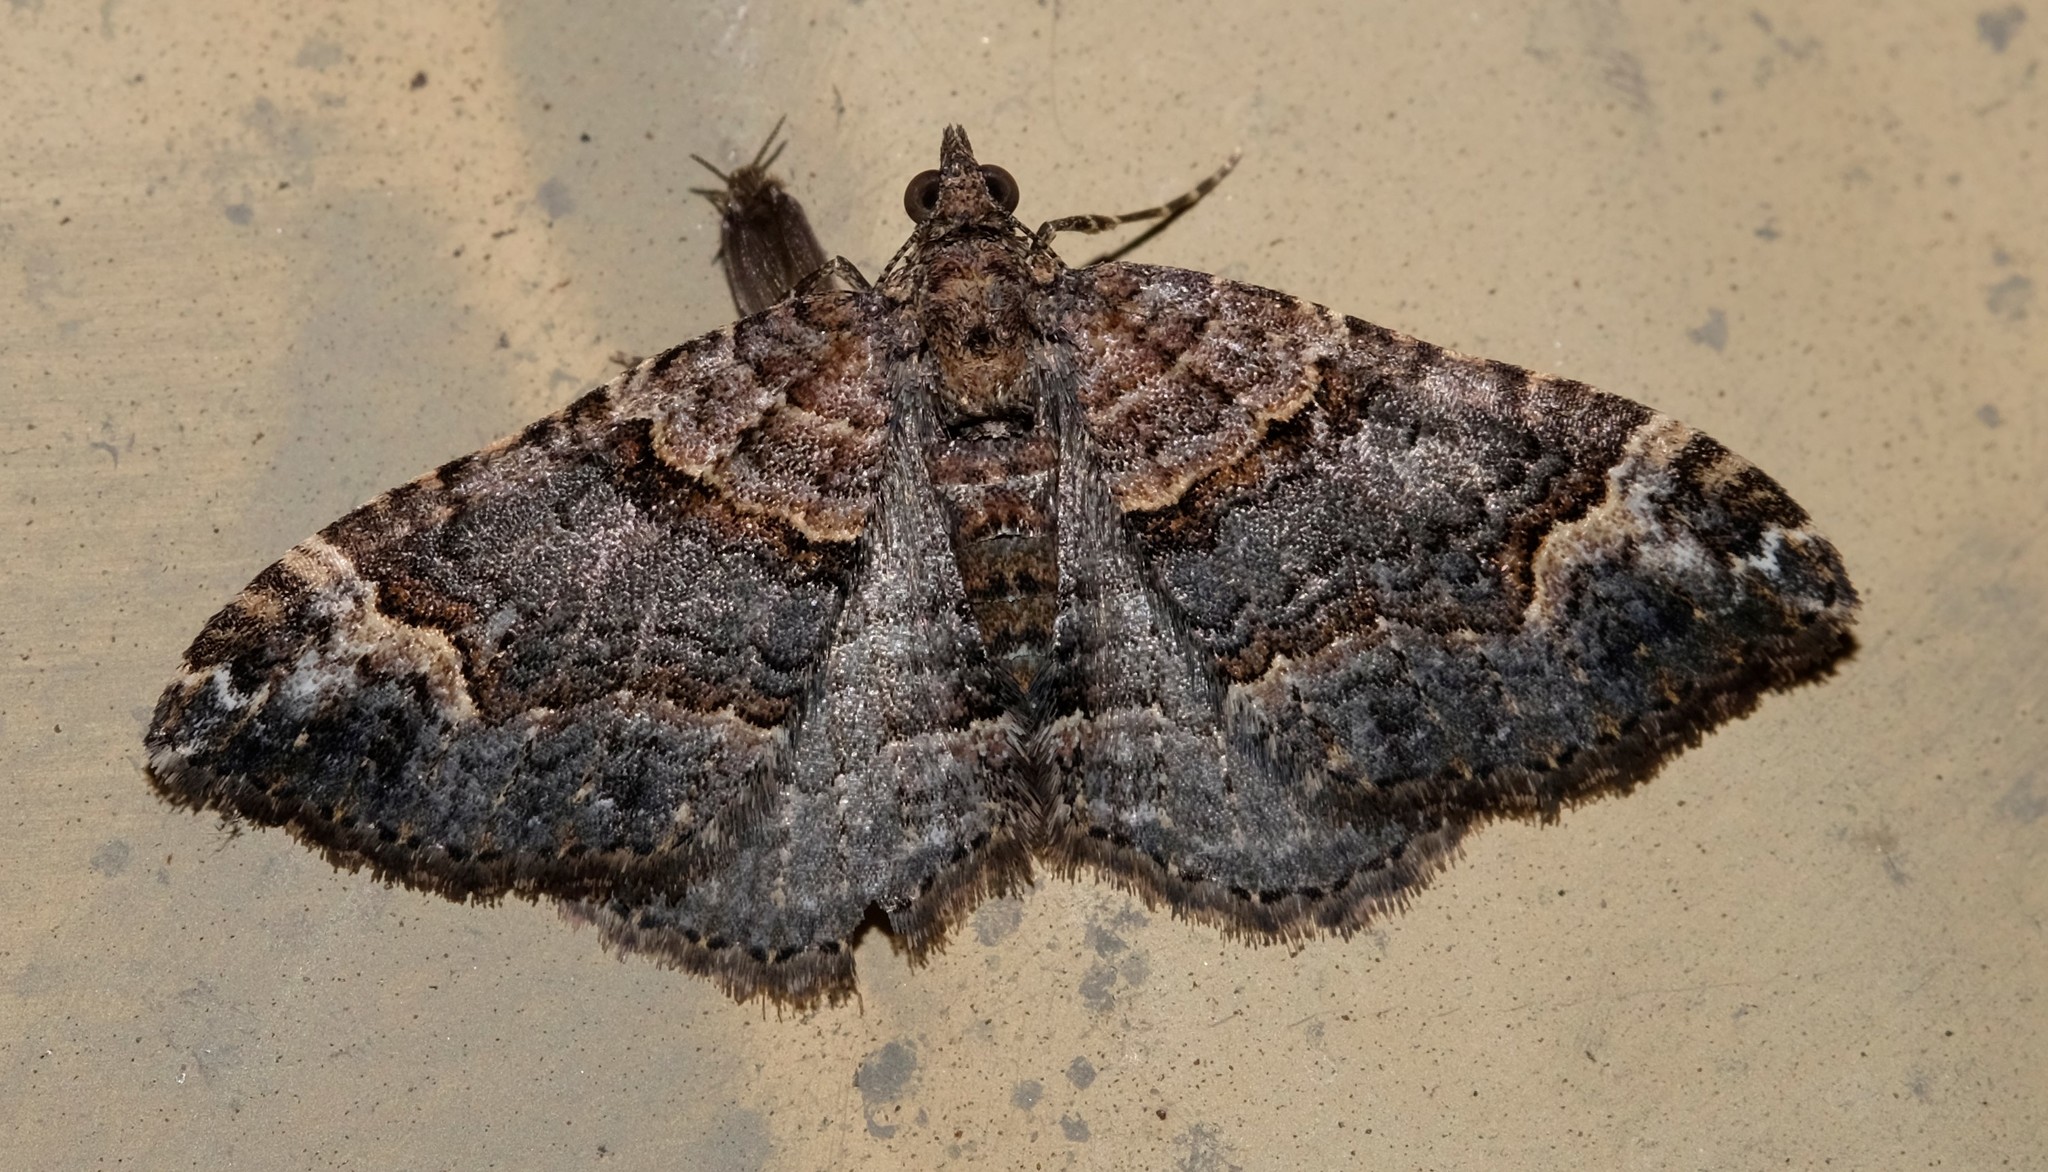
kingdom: Animalia
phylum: Arthropoda
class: Insecta
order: Lepidoptera
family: Geometridae
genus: Epyaxa
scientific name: Epyaxa sodaliata
